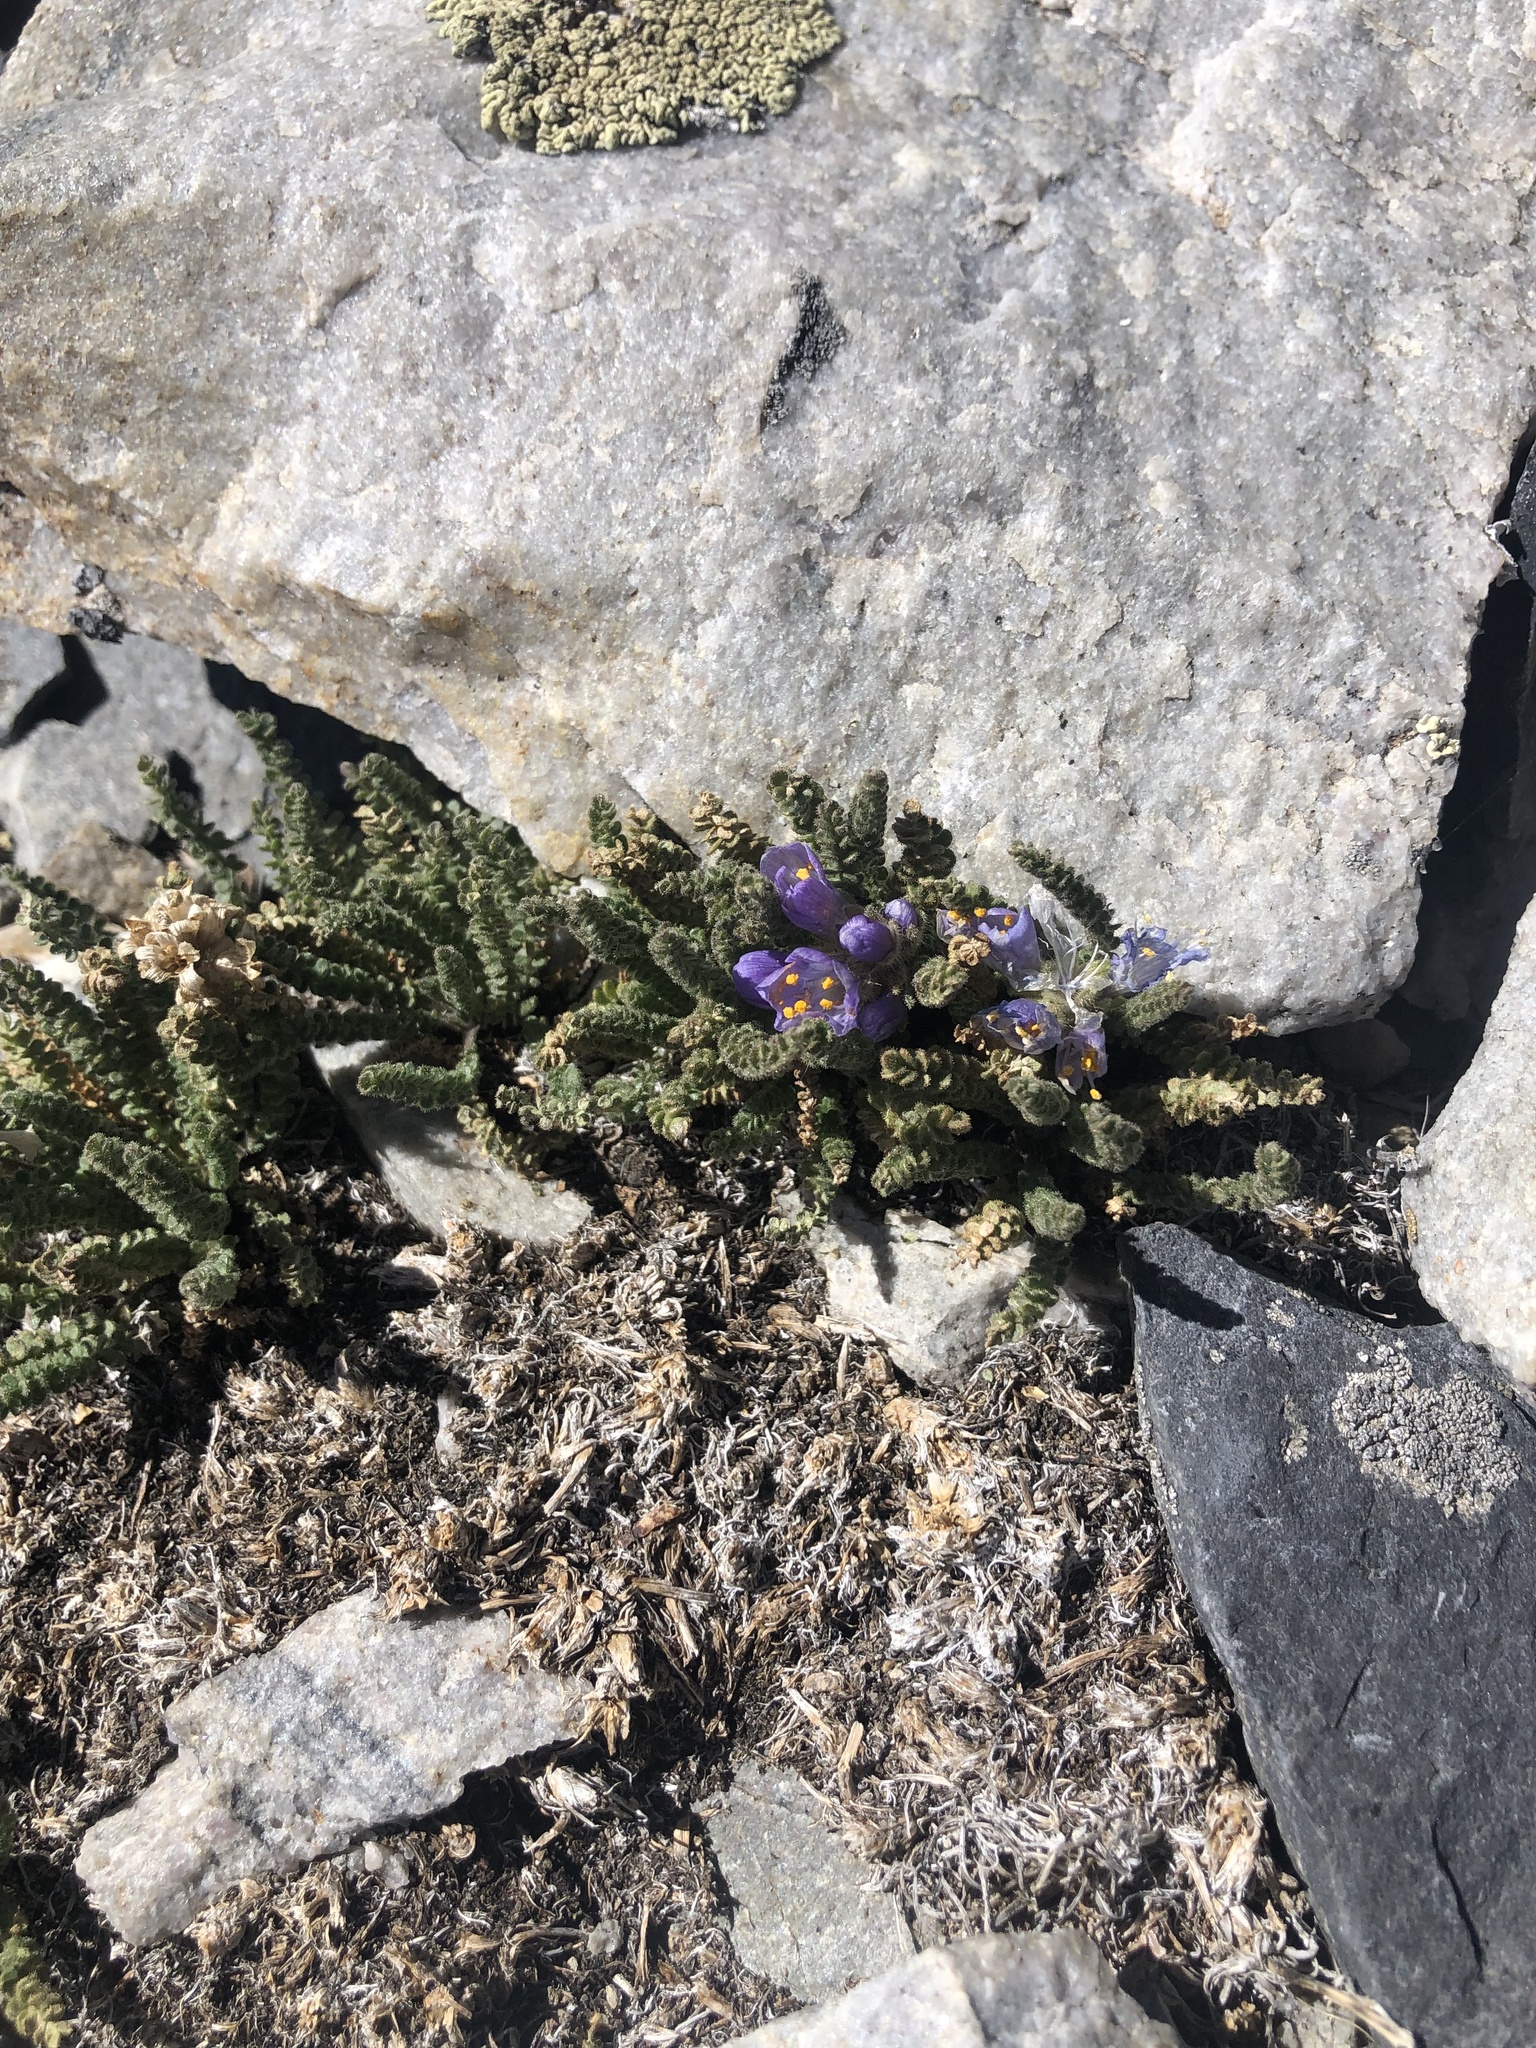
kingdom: Plantae
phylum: Tracheophyta
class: Magnoliopsida
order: Ericales
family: Polemoniaceae
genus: Polemonium
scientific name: Polemonium viscosum
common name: Skunk jacob's-ladder
